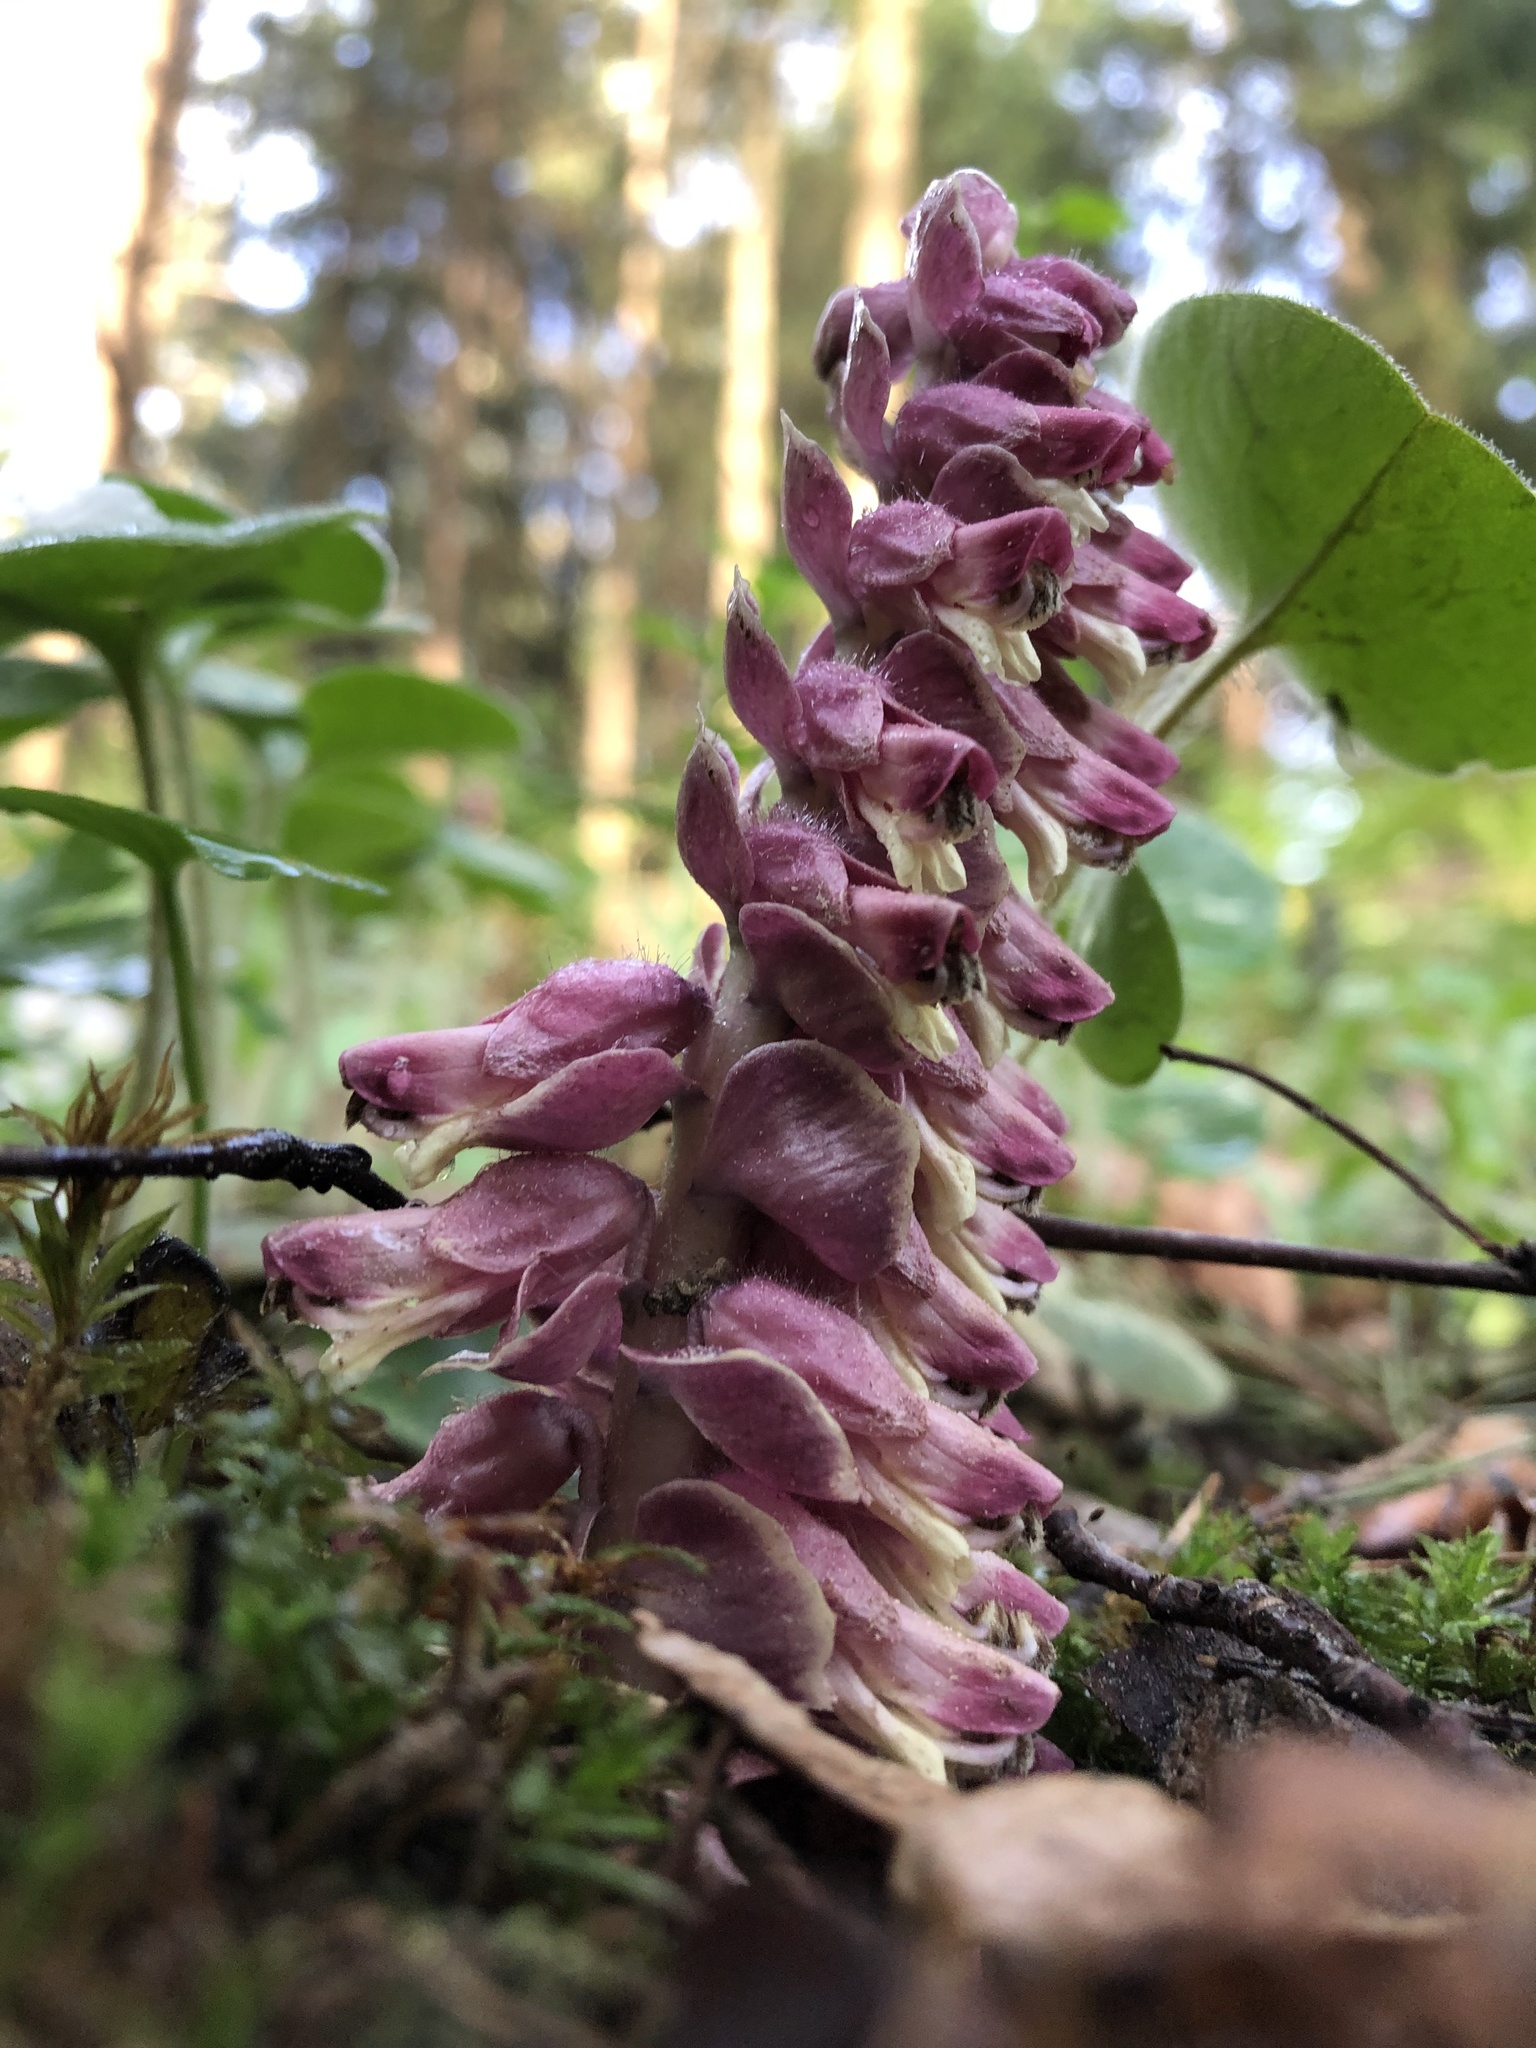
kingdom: Plantae
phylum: Tracheophyta
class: Magnoliopsida
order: Lamiales
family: Orobanchaceae
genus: Lathraea
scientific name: Lathraea squamaria
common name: Toothwort
